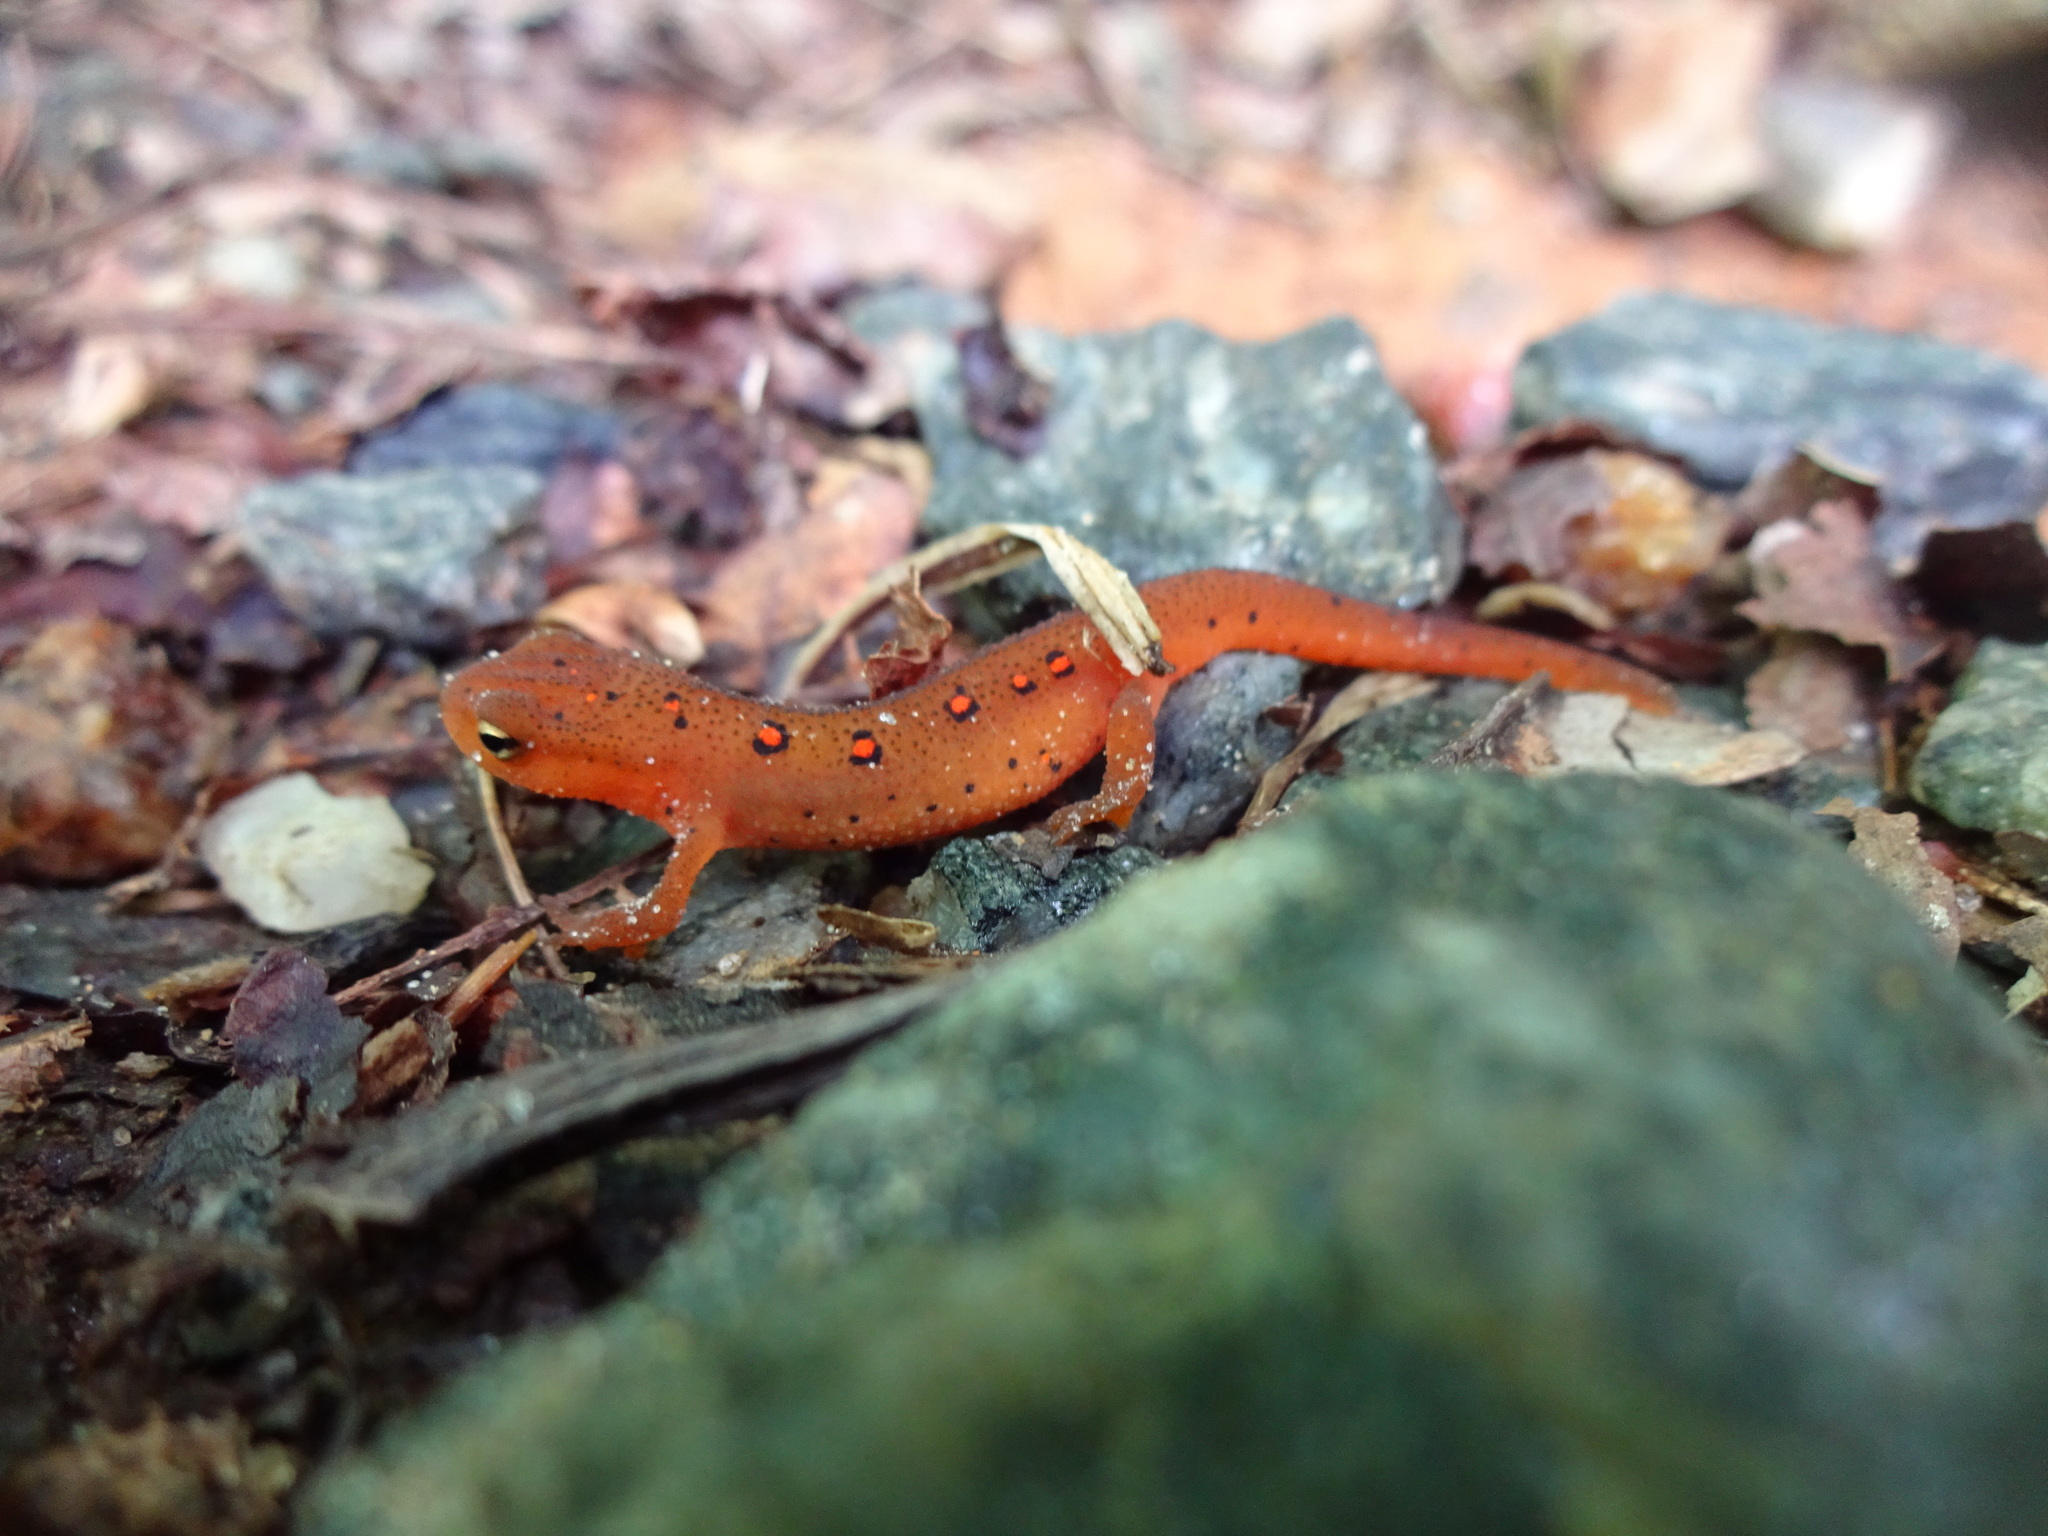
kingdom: Animalia
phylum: Chordata
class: Amphibia
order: Caudata
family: Salamandridae
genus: Notophthalmus
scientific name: Notophthalmus viridescens
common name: Eastern newt
